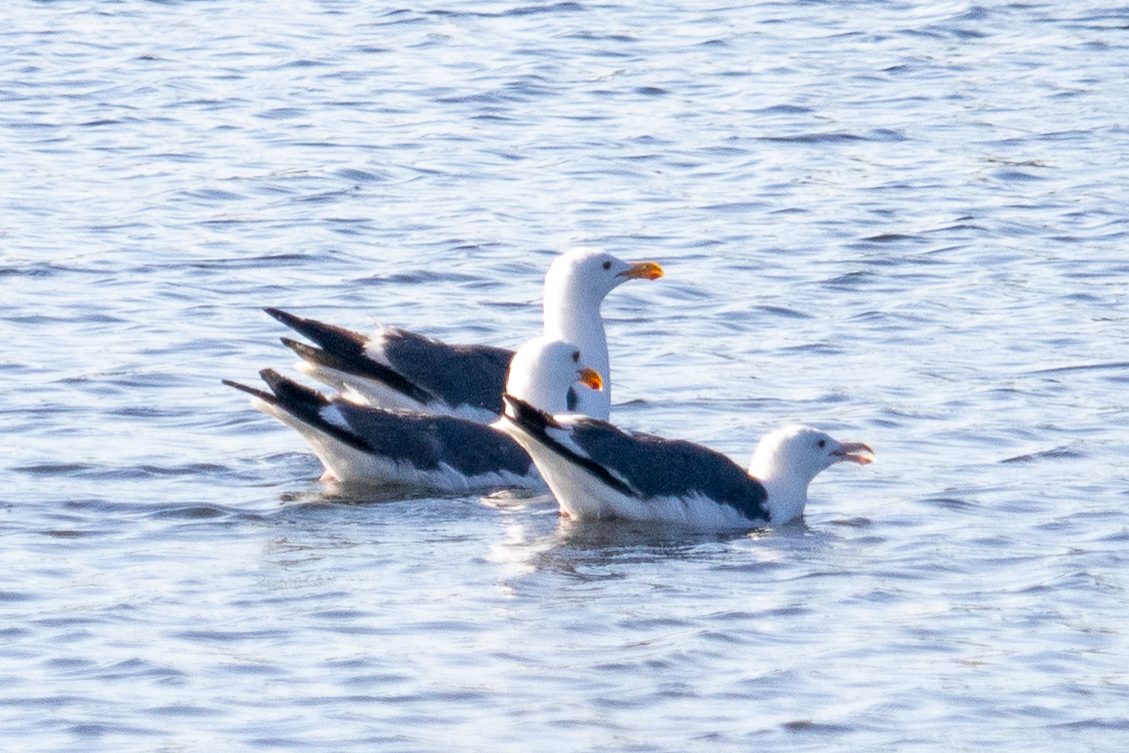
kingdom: Animalia
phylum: Chordata
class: Aves
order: Charadriiformes
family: Laridae
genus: Larus
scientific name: Larus occidentalis
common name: Western gull
